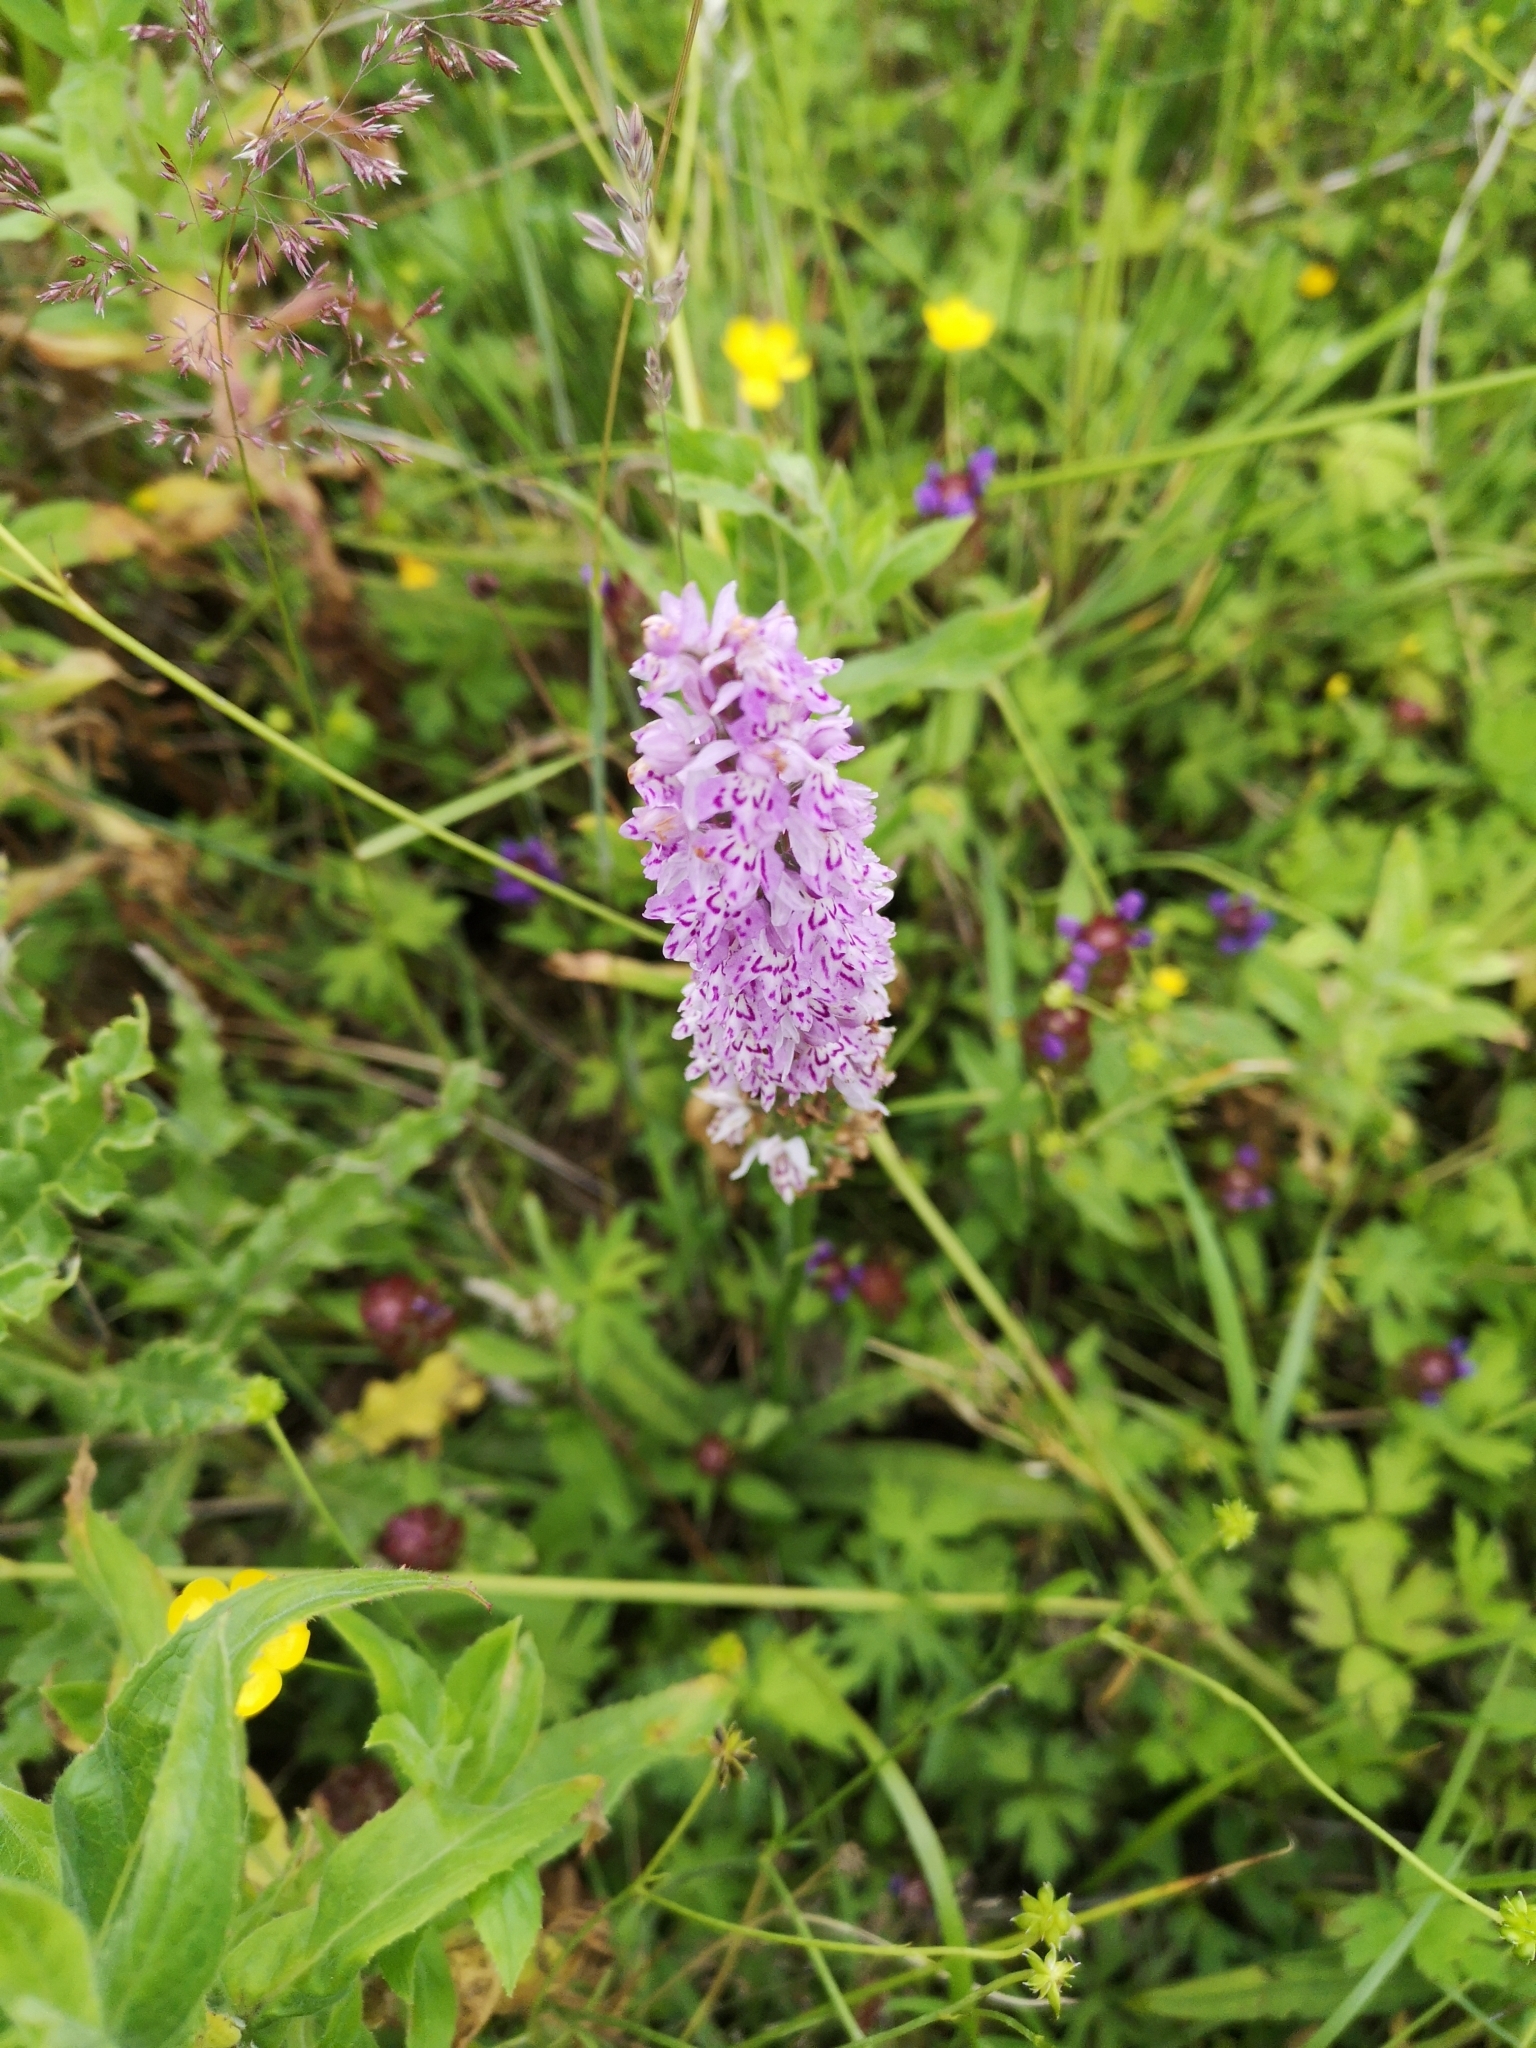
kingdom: Plantae
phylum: Tracheophyta
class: Liliopsida
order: Asparagales
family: Orchidaceae
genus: Dactylorhiza
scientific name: Dactylorhiza maculata
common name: Heath spotted-orchid
